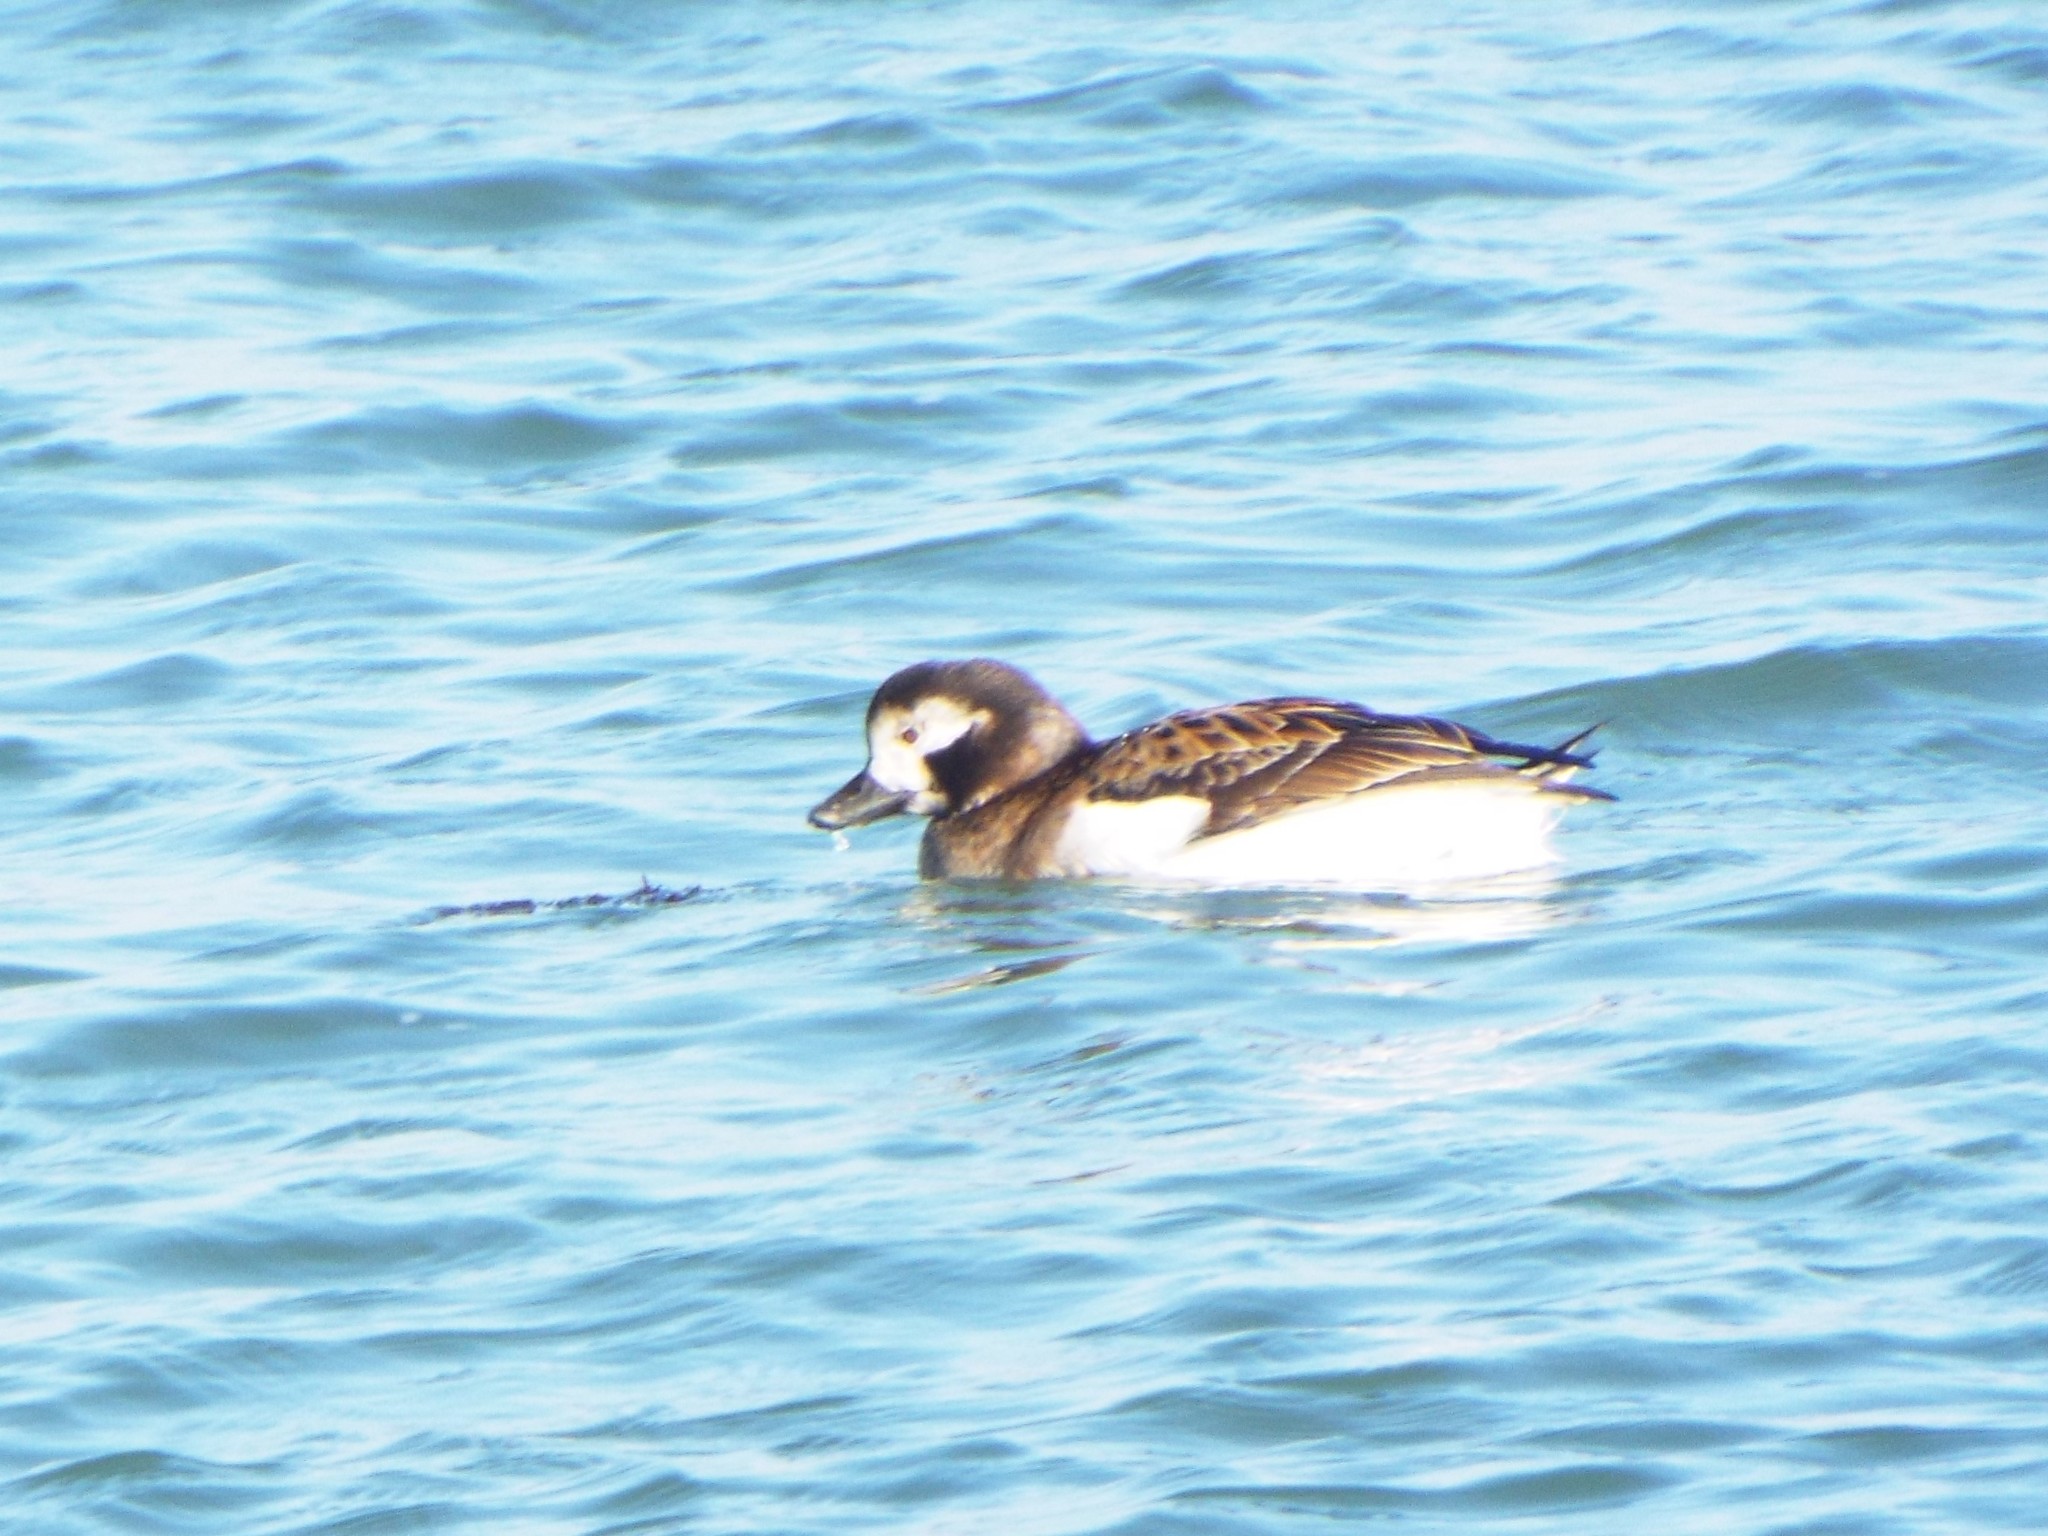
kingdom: Animalia
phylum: Chordata
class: Aves
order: Anseriformes
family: Anatidae
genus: Clangula
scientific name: Clangula hyemalis
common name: Long-tailed duck
